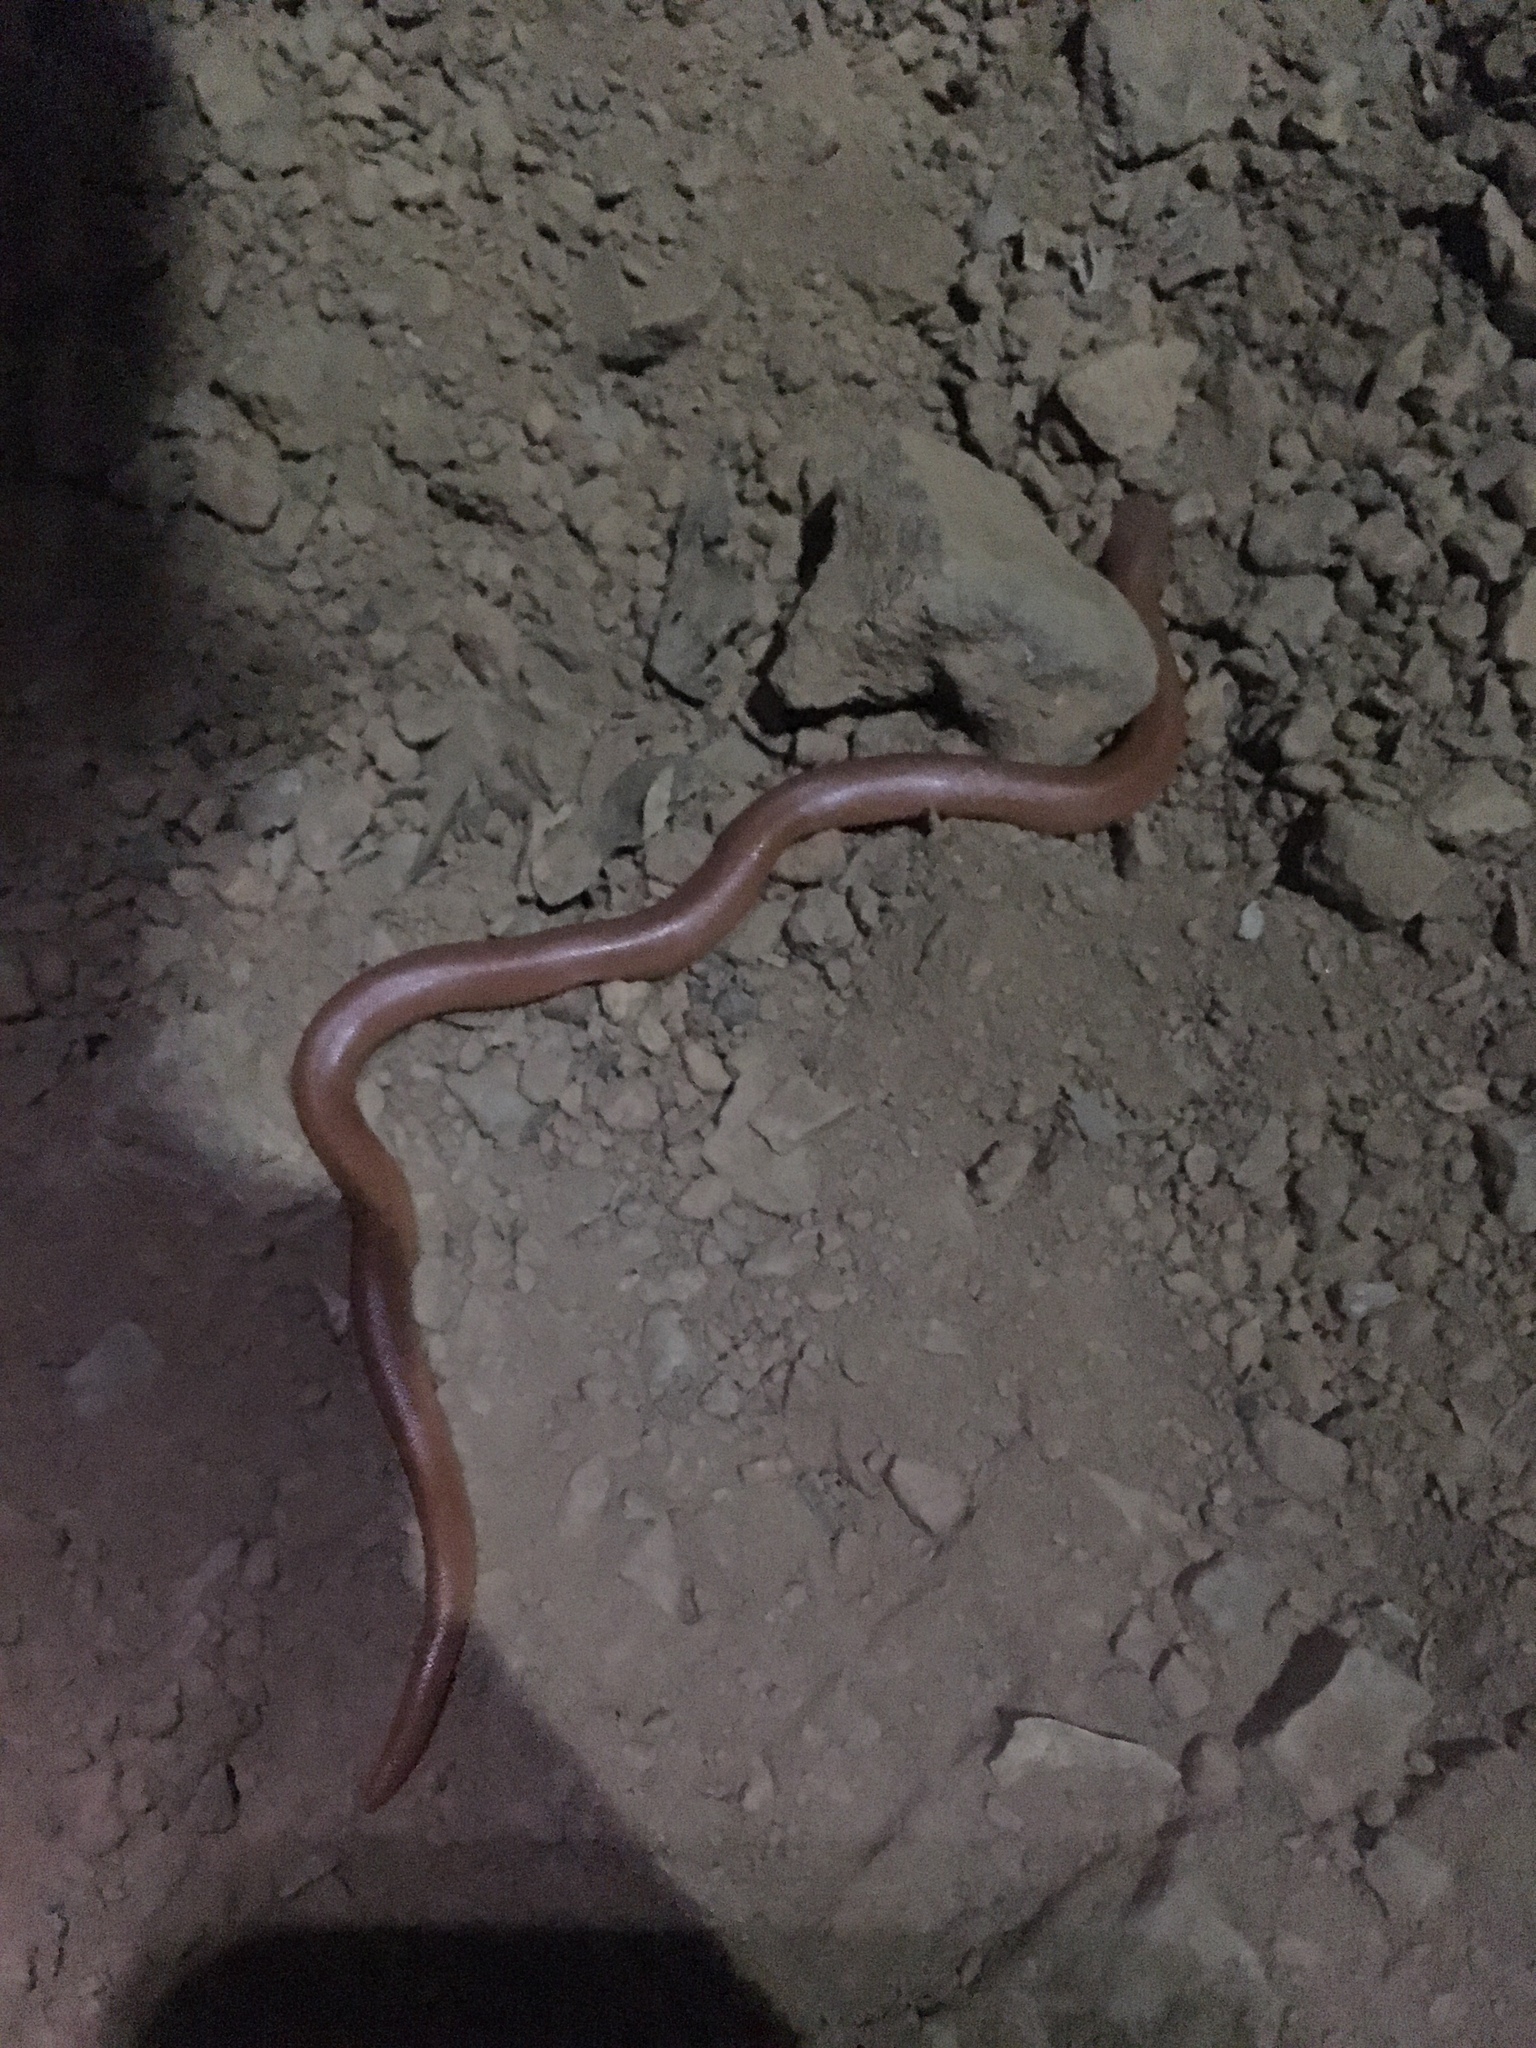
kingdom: Animalia
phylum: Chordata
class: Squamata
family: Boidae
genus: Charina
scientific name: Charina bottae
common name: Northern rubber boa
